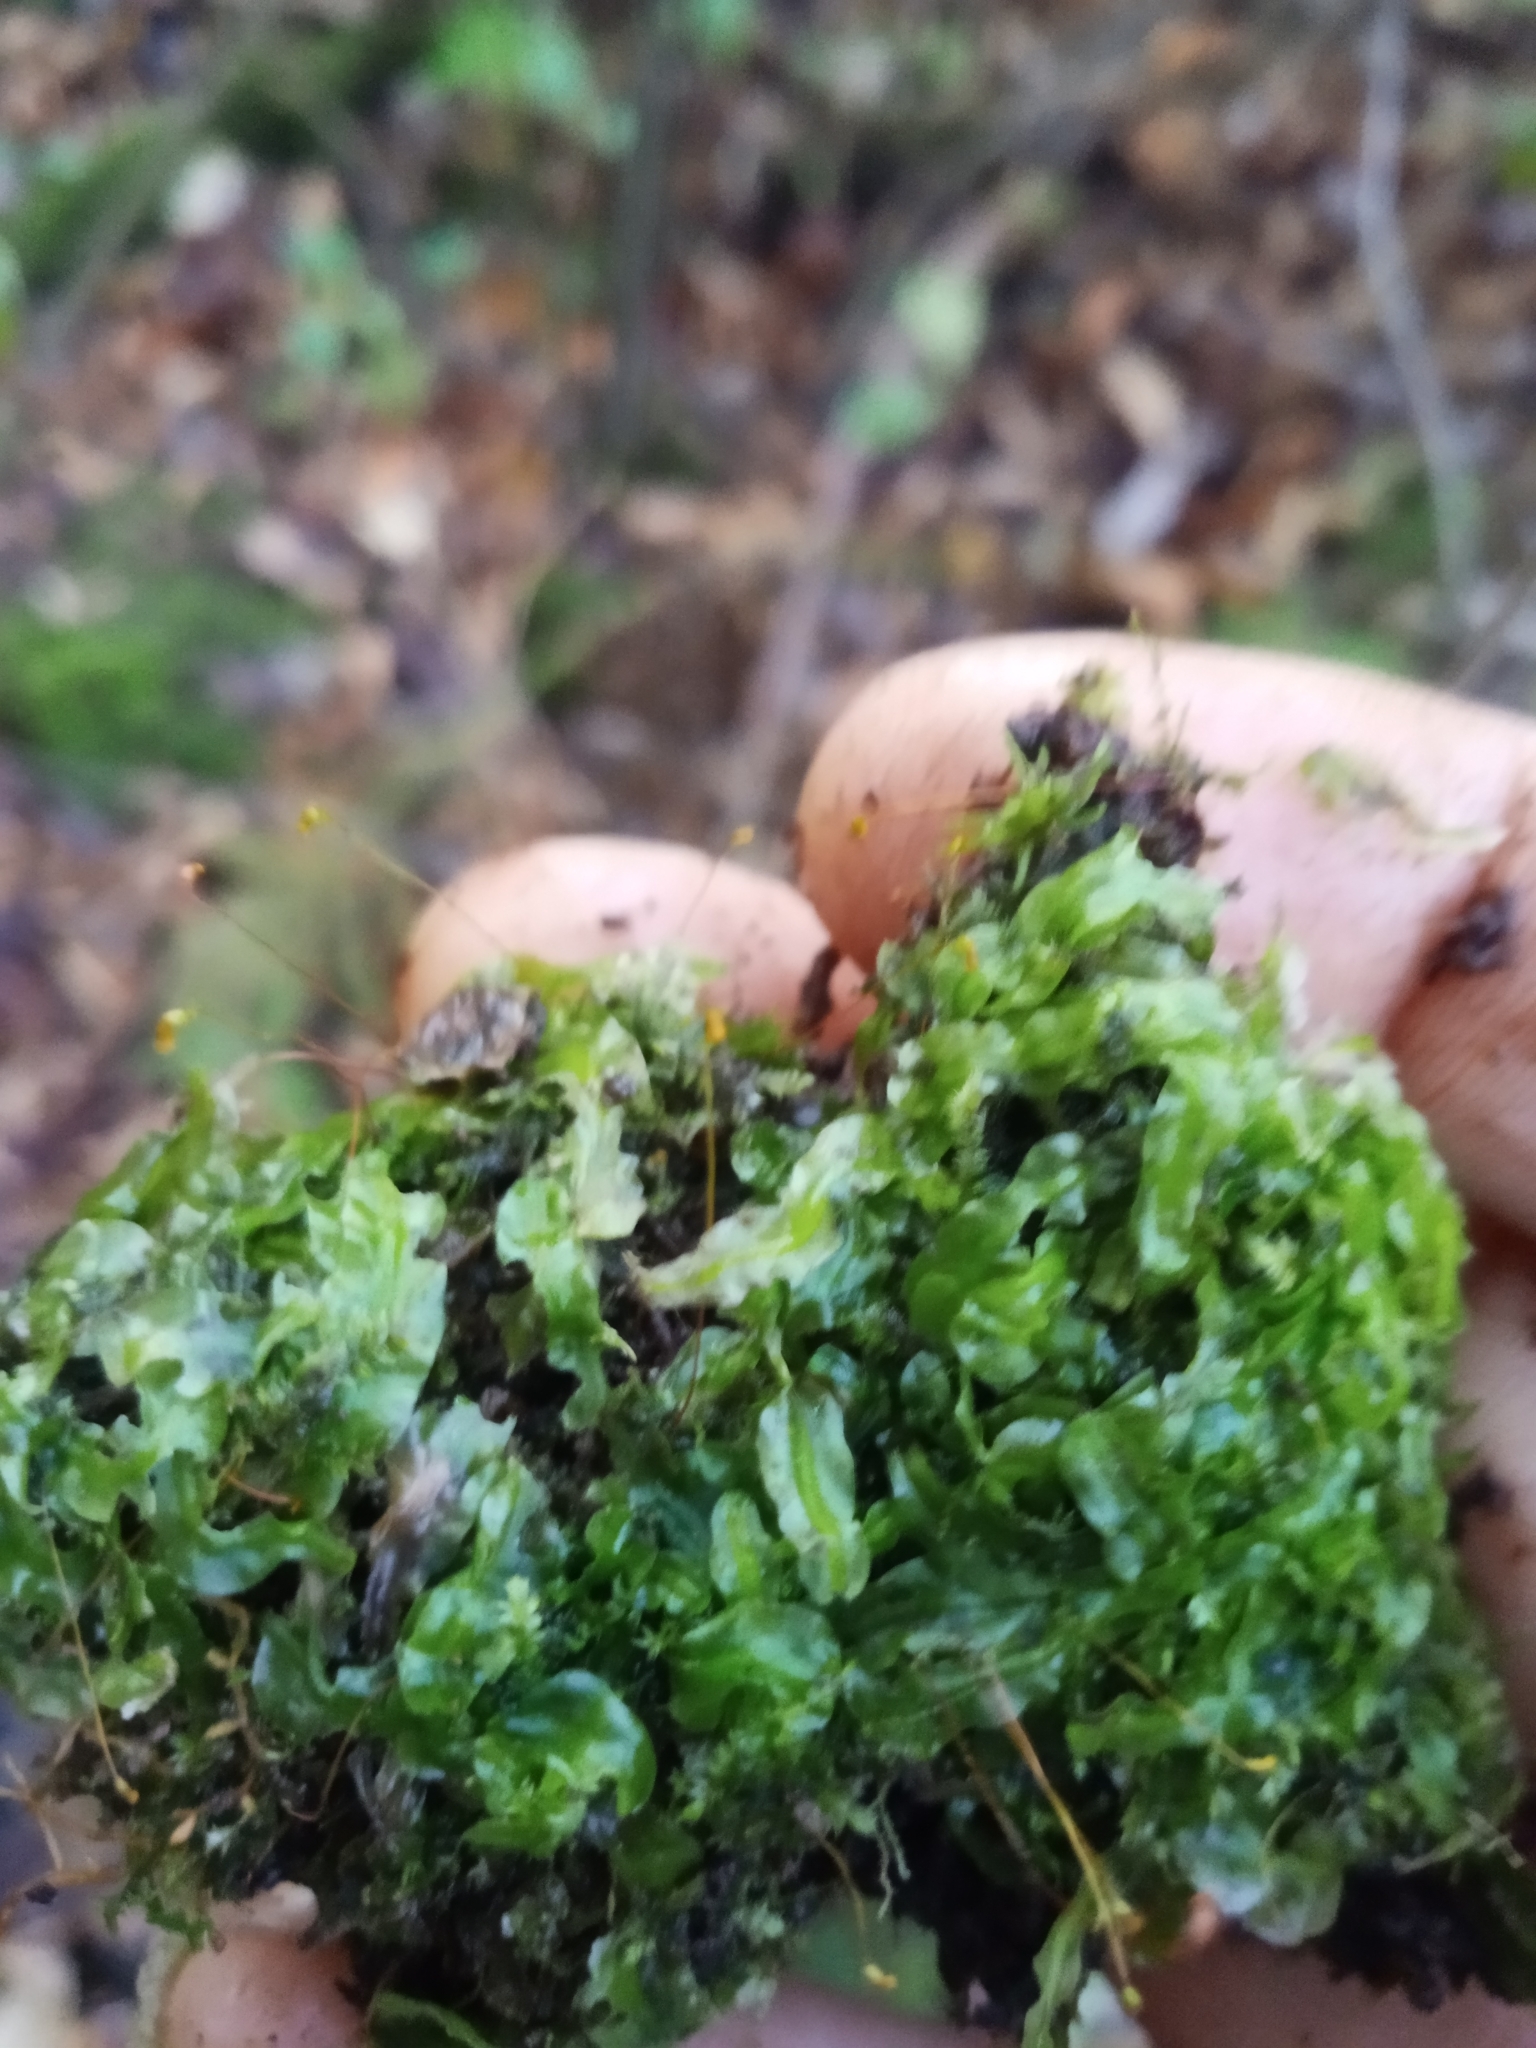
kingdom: Plantae
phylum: Marchantiophyta
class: Jungermanniopsida
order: Pallaviciniales
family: Pallaviciniaceae
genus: Pallavicinia
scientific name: Pallavicinia lyellii
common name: Veilwort
